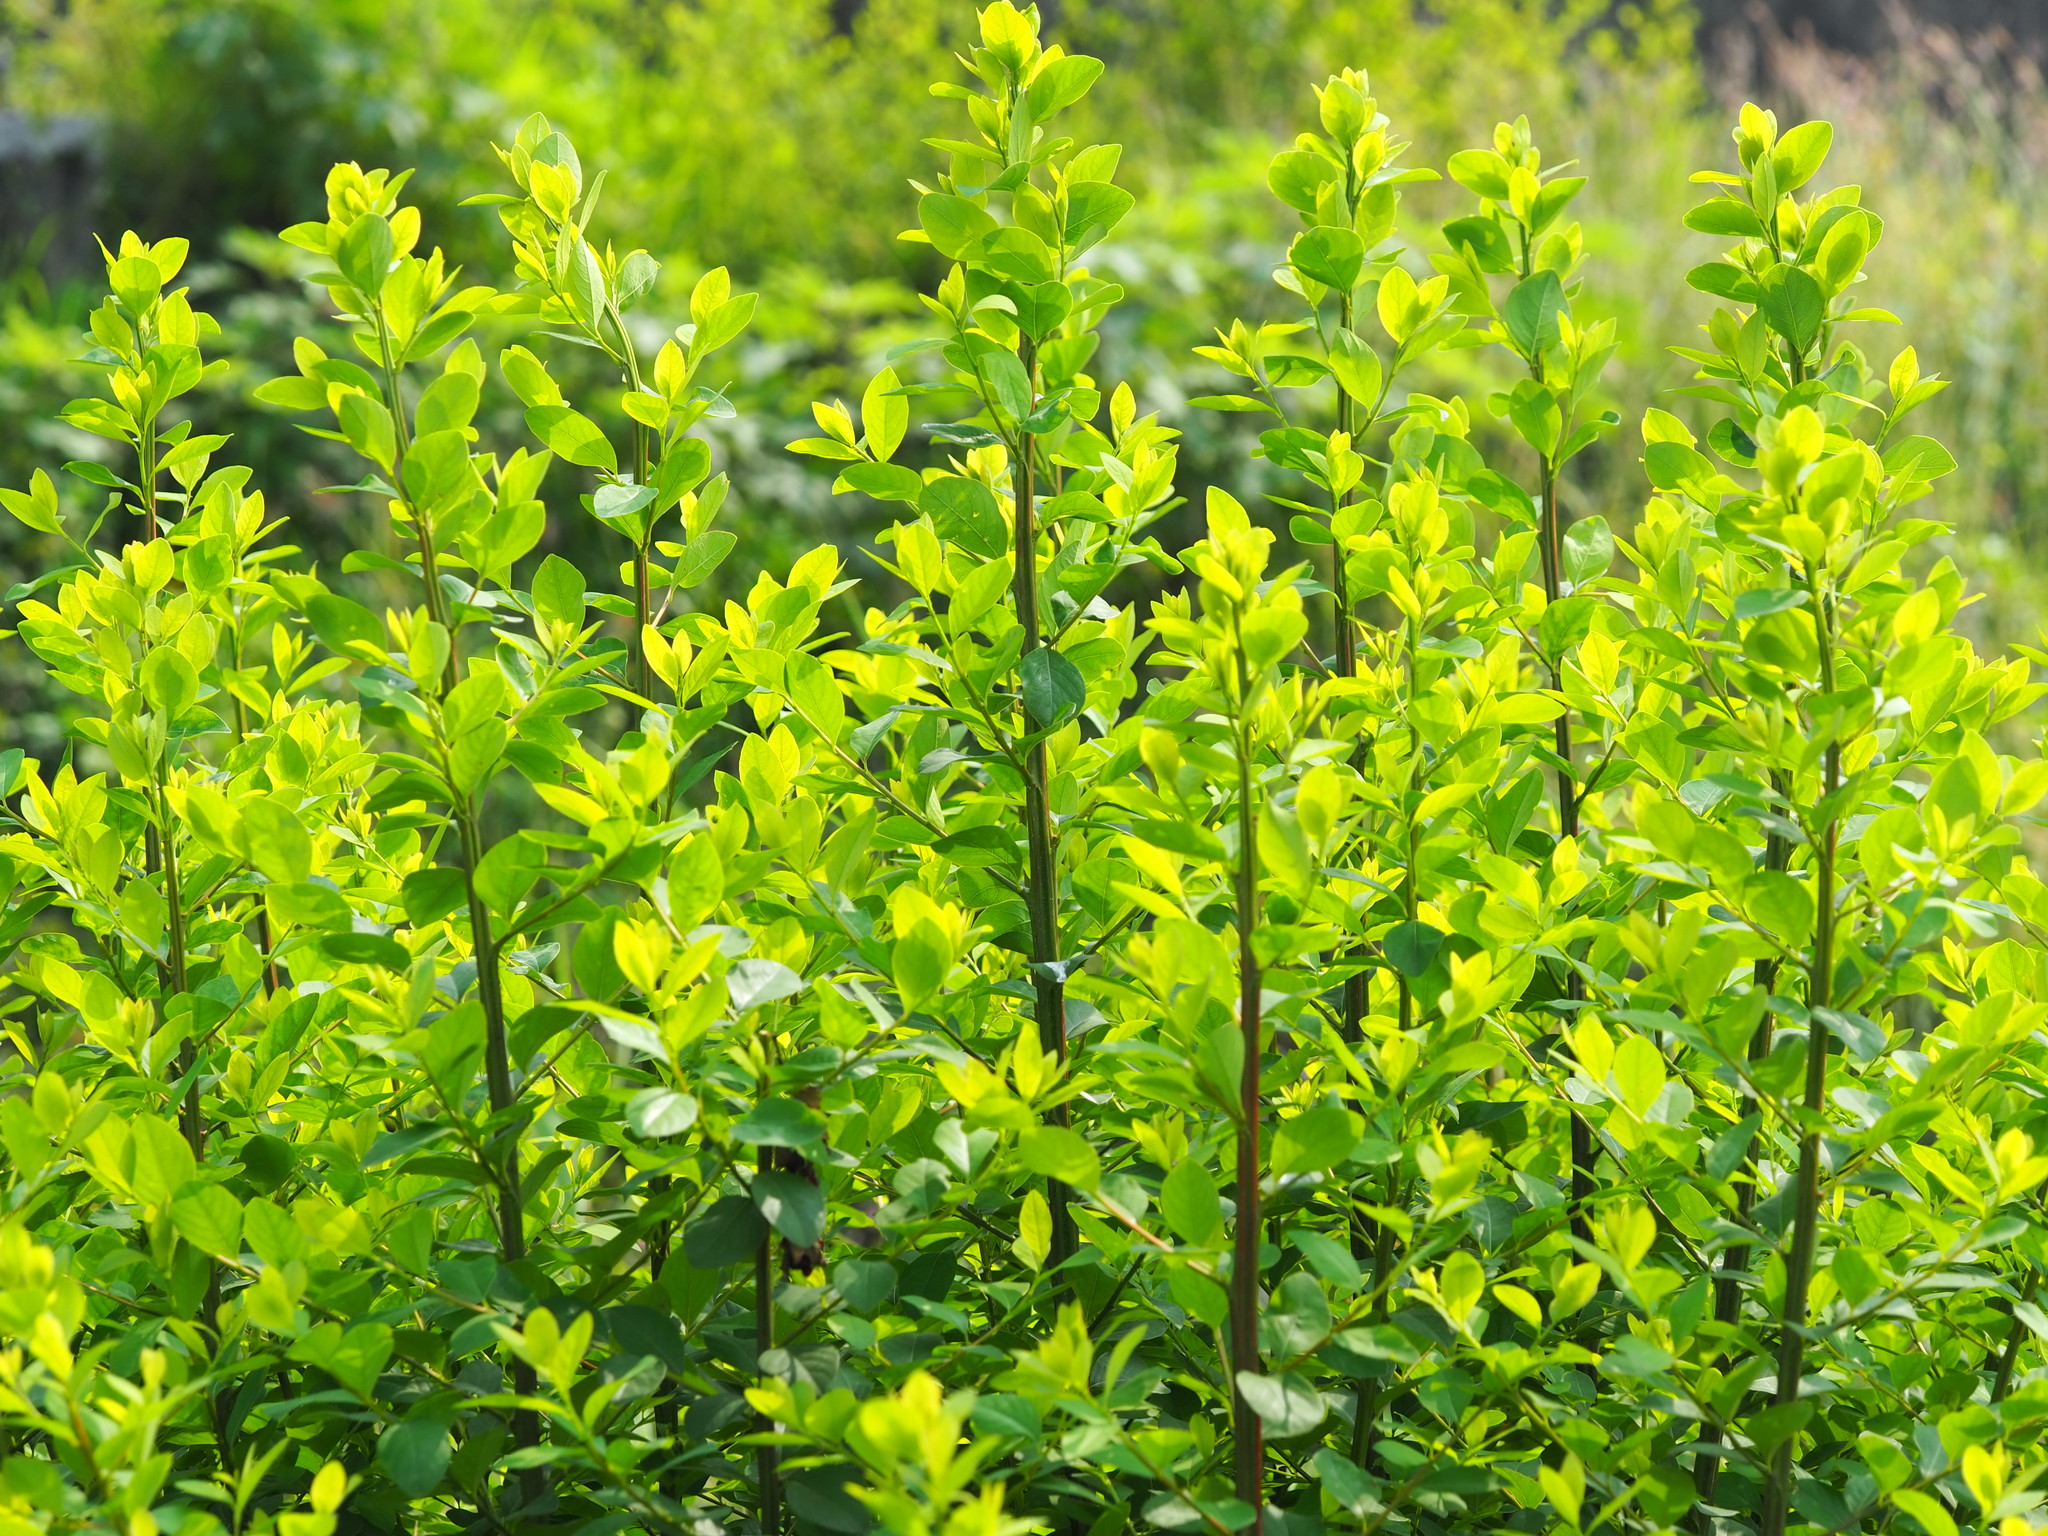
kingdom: Plantae
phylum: Tracheophyta
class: Magnoliopsida
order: Malpighiales
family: Phyllanthaceae
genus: Flueggea
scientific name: Flueggea virosa
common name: Common bushweed
